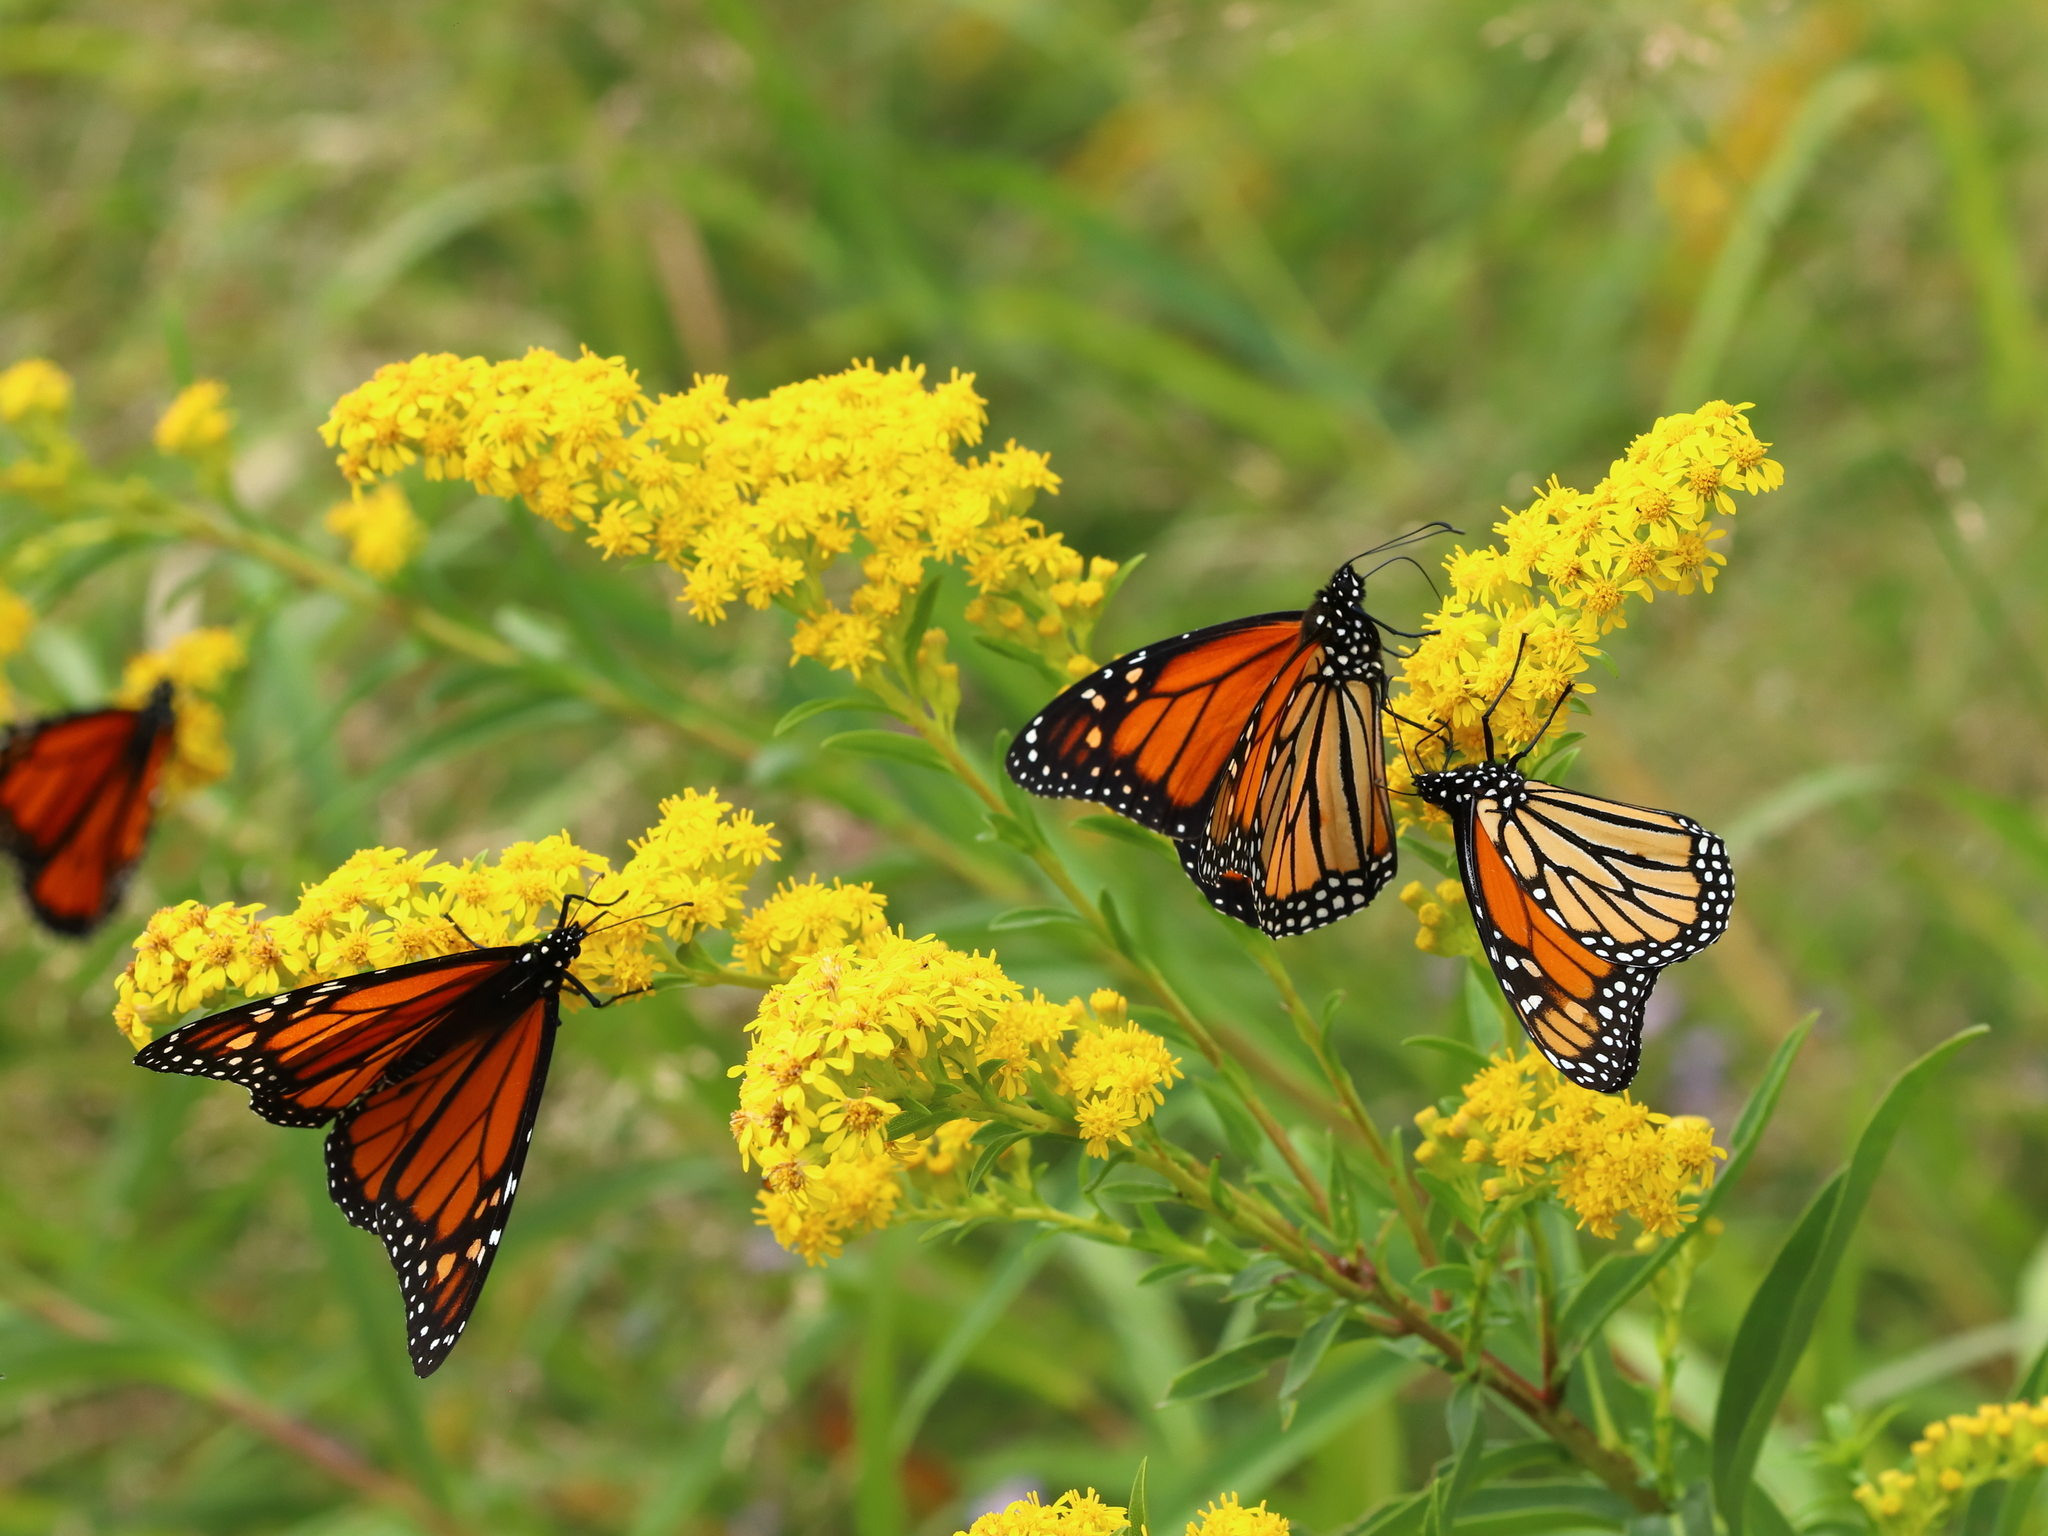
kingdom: Animalia
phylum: Arthropoda
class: Insecta
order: Lepidoptera
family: Nymphalidae
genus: Danaus
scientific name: Danaus plexippus
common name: Monarch
